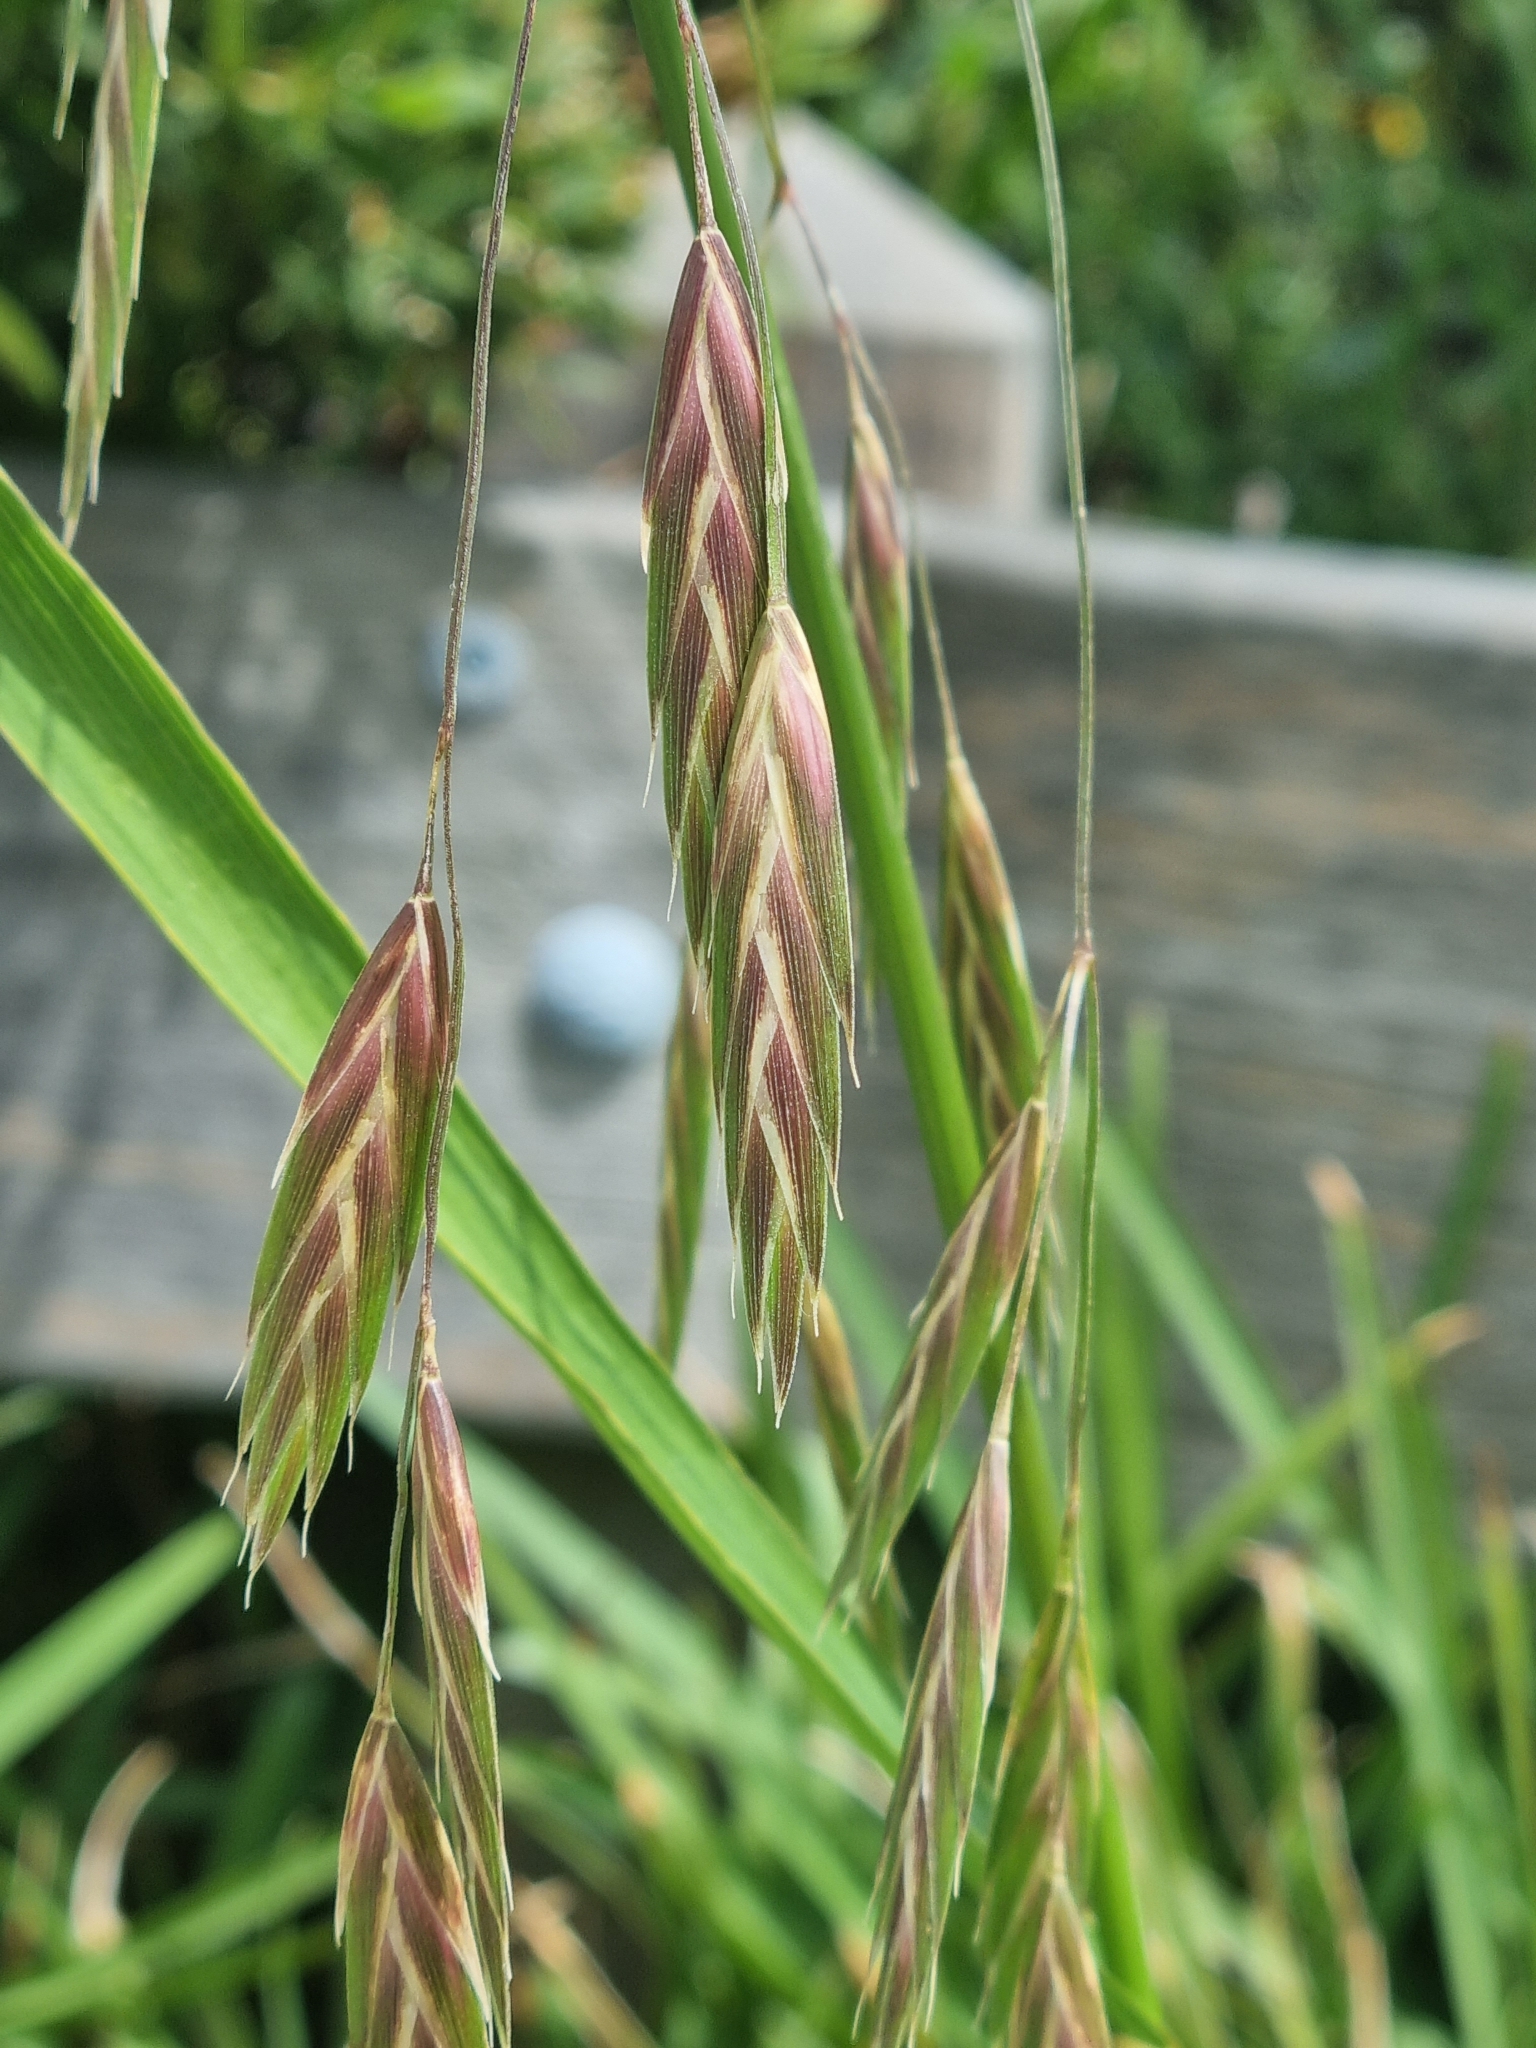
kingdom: Plantae
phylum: Tracheophyta
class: Liliopsida
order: Poales
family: Poaceae
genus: Bromus
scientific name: Bromus catharticus
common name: Rescuegrass
